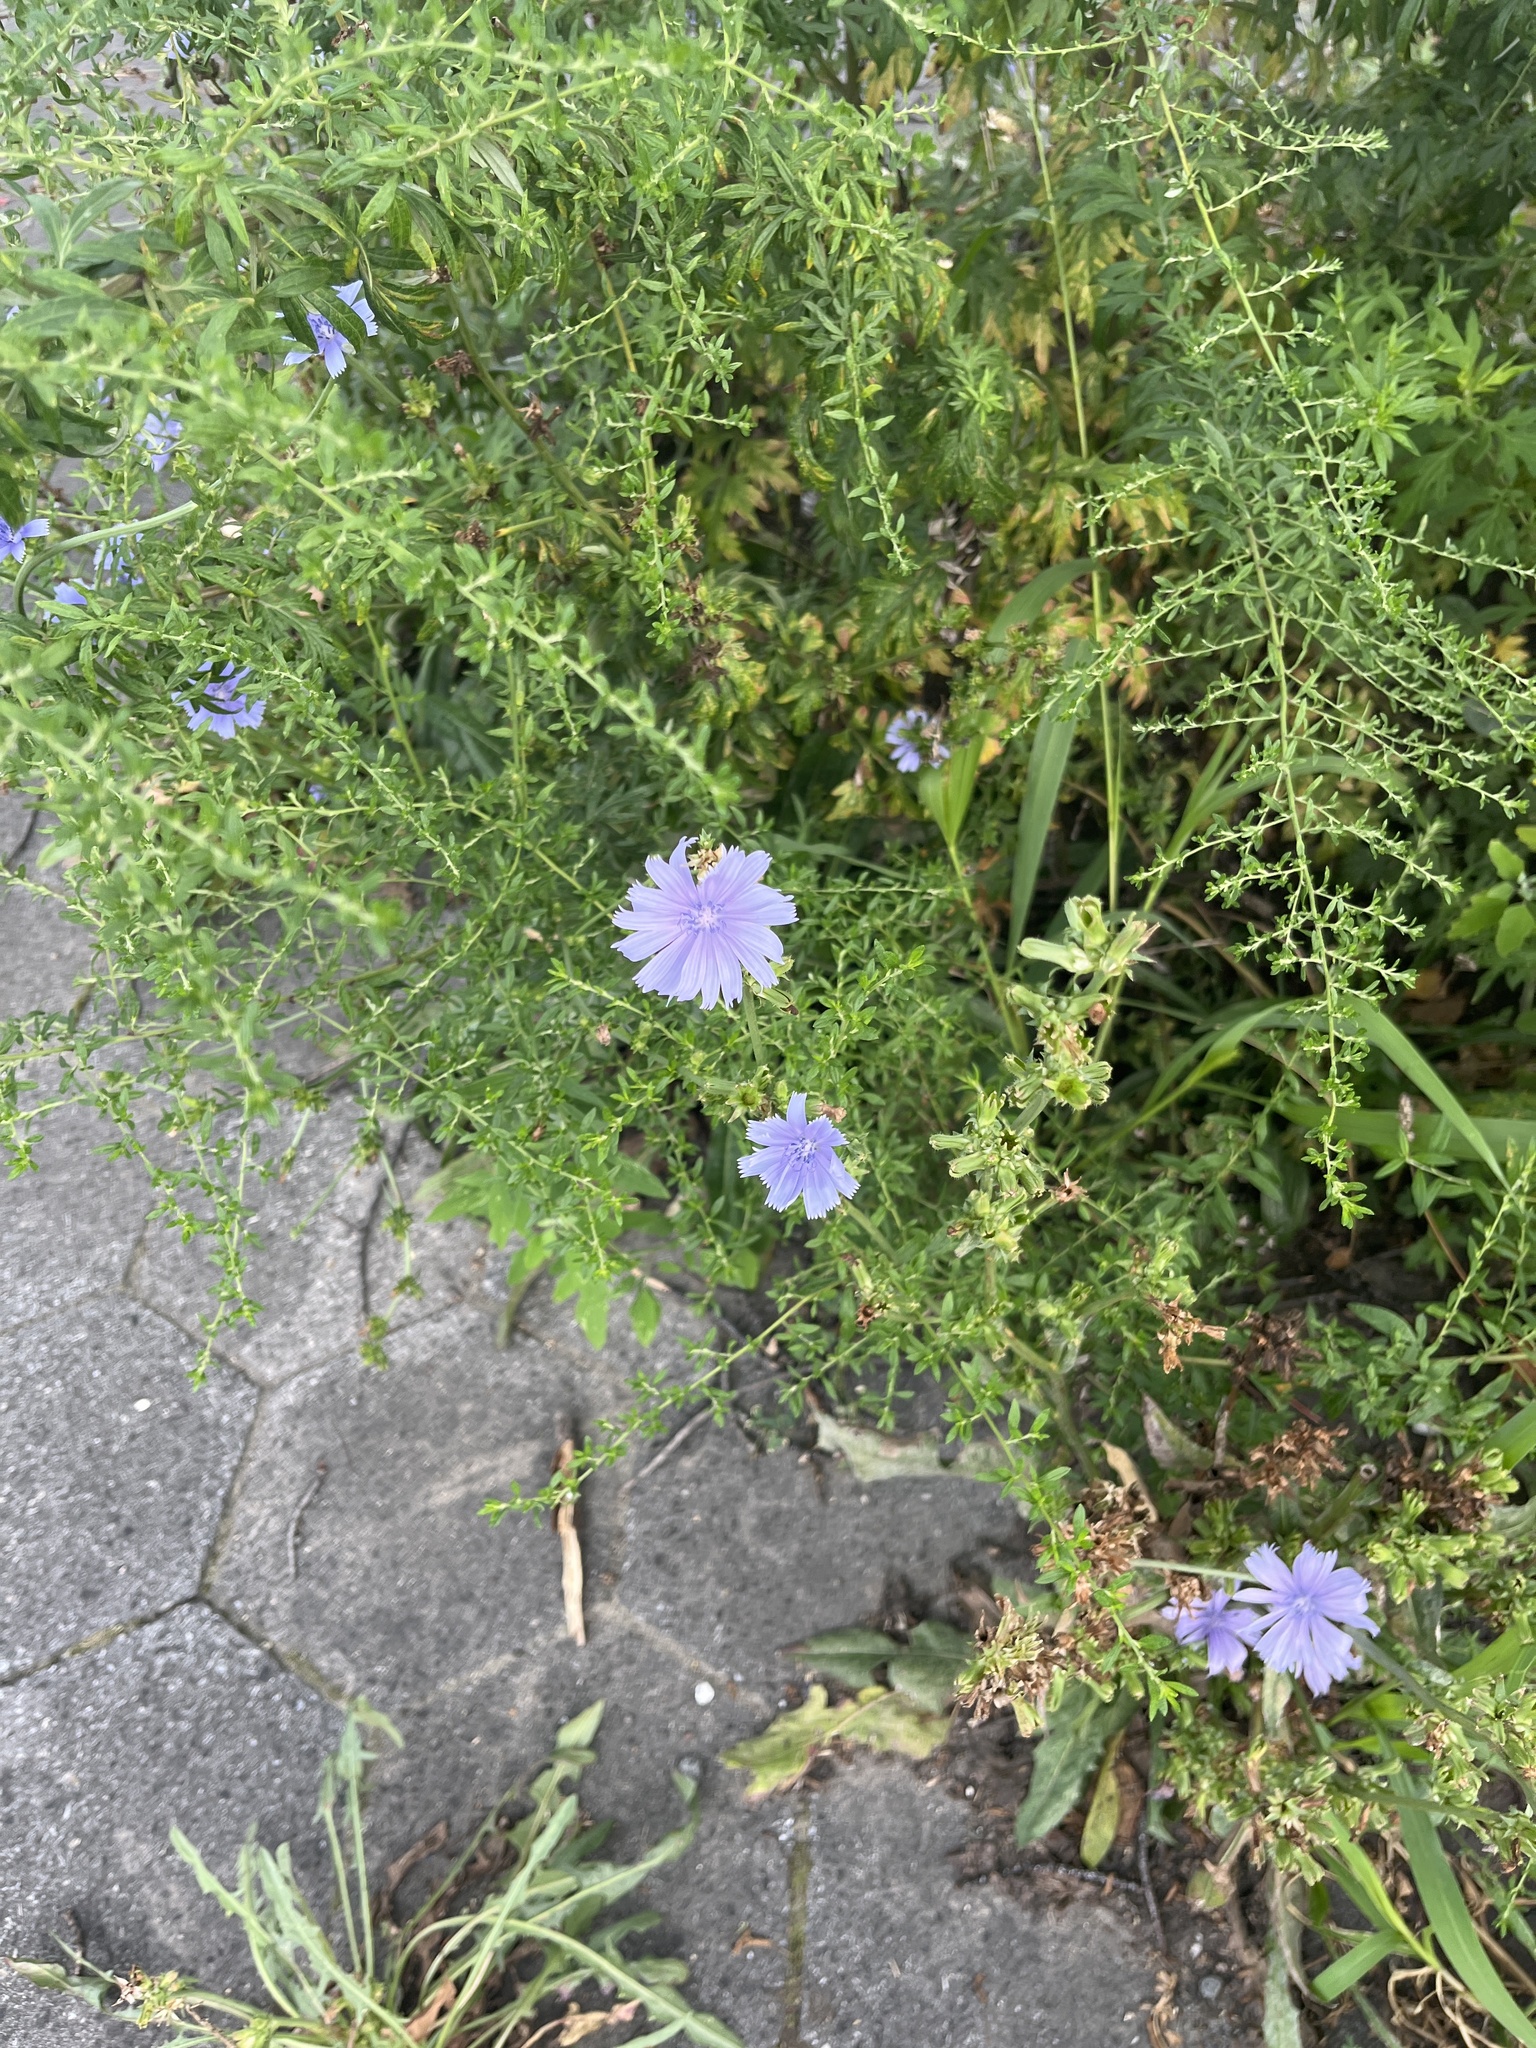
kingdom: Plantae
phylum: Tracheophyta
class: Magnoliopsida
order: Asterales
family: Asteraceae
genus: Cichorium
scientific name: Cichorium intybus
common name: Chicory
